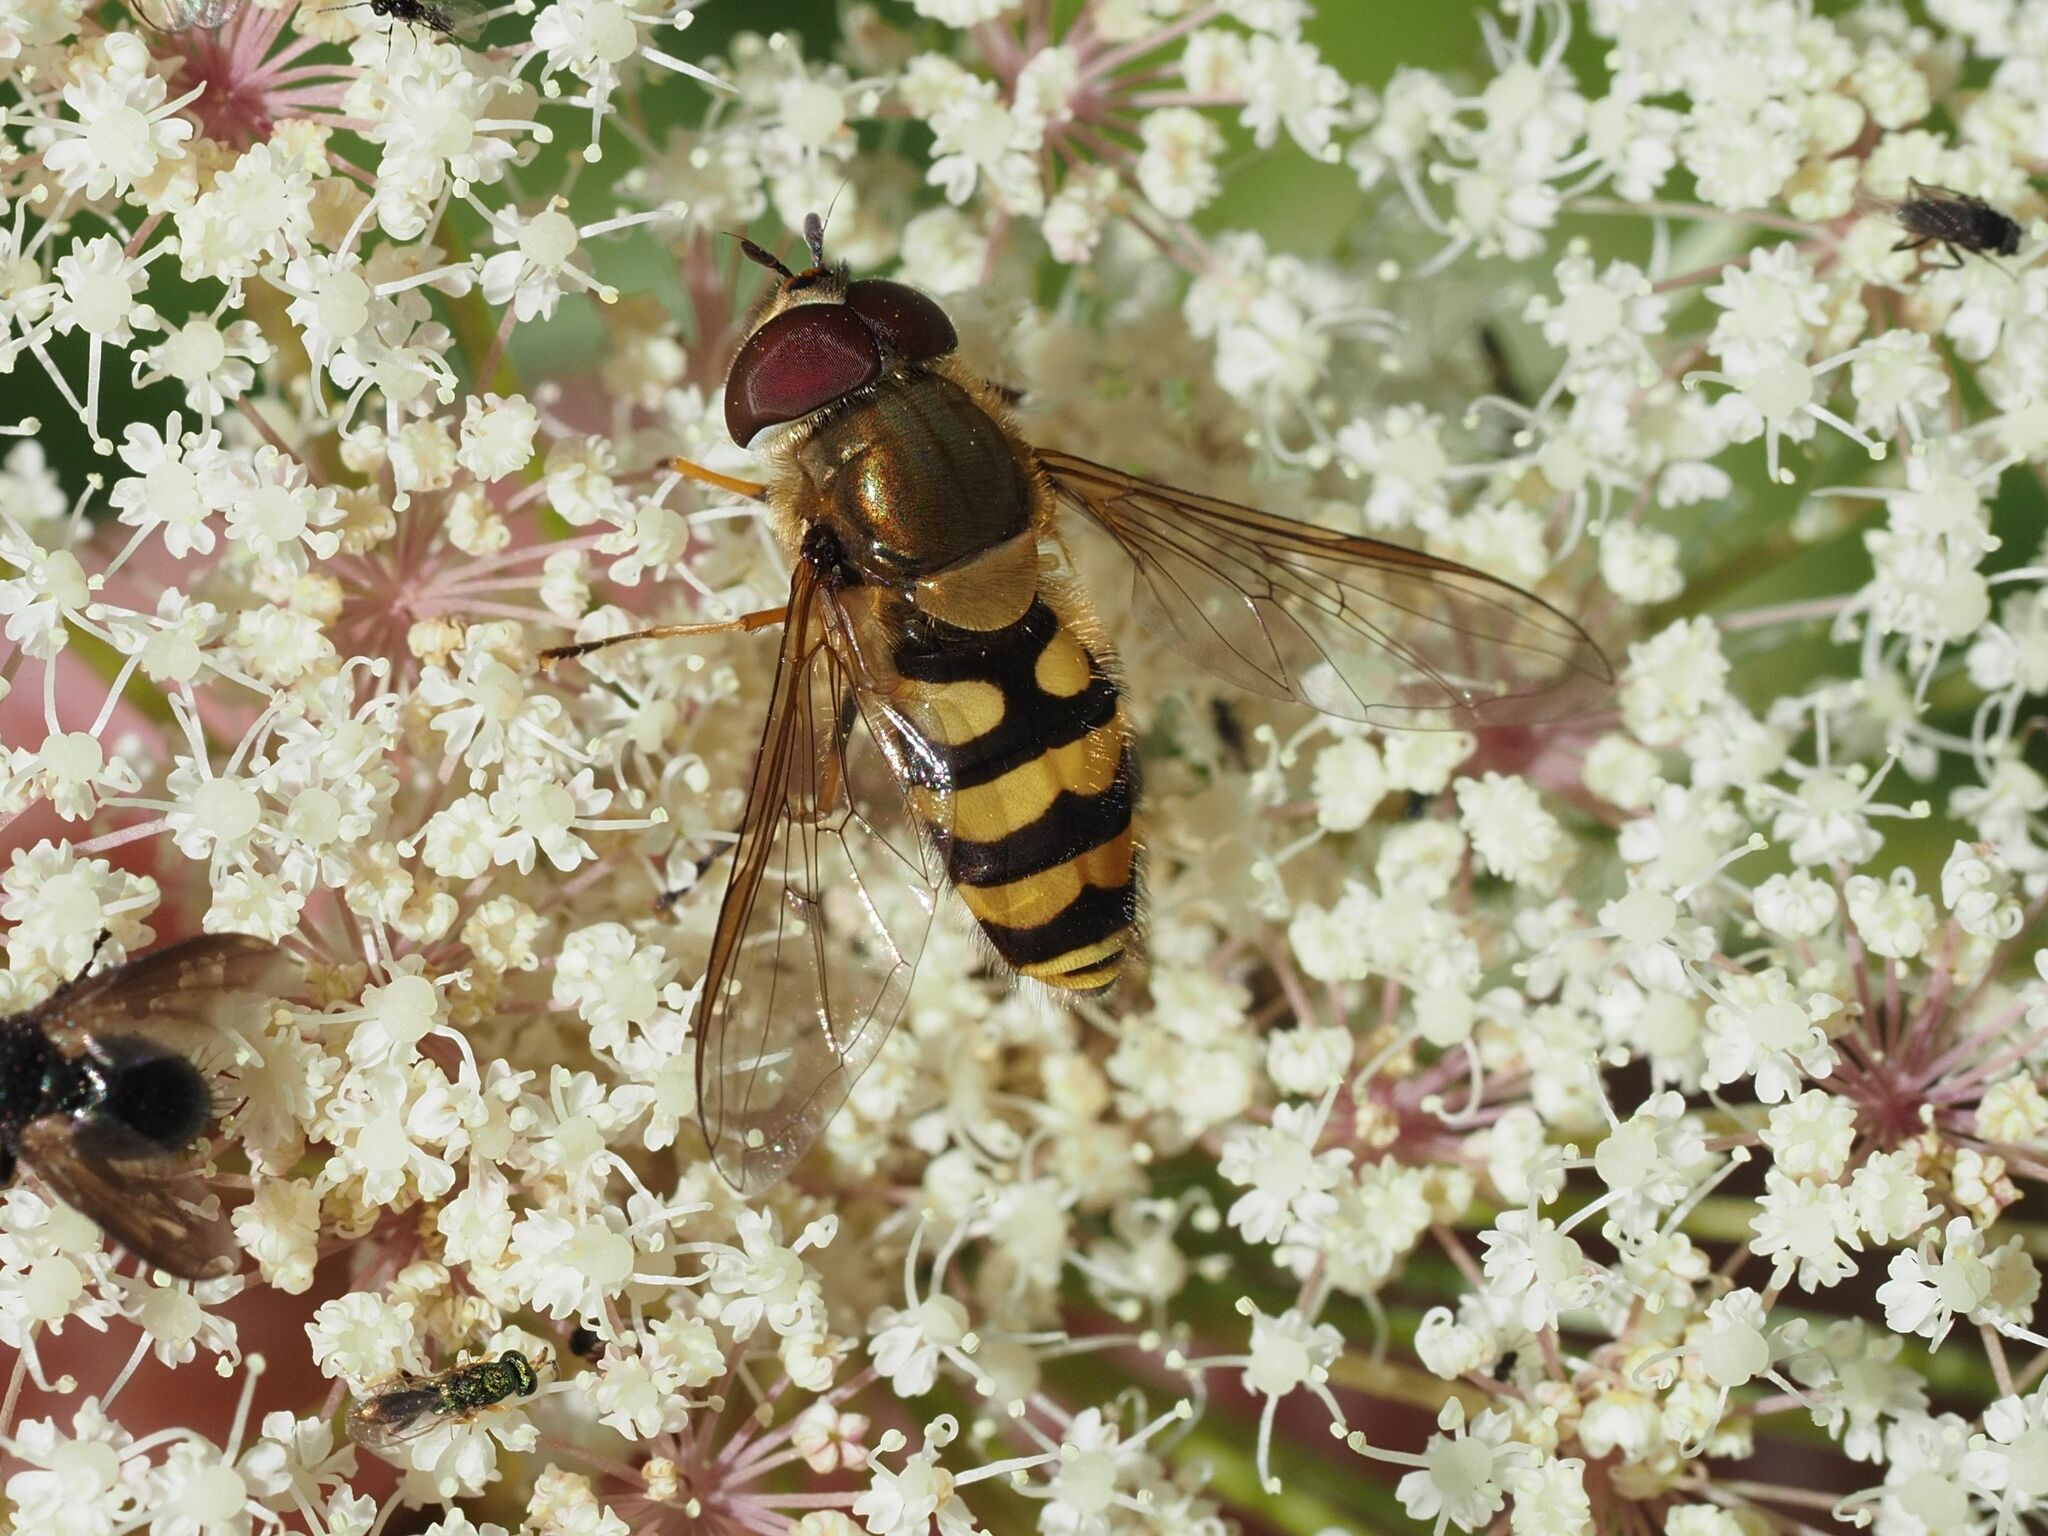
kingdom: Animalia
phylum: Arthropoda
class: Insecta
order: Diptera
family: Syrphidae
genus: Syrphus
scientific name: Syrphus torvus
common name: Hairy-eyed flower fly
